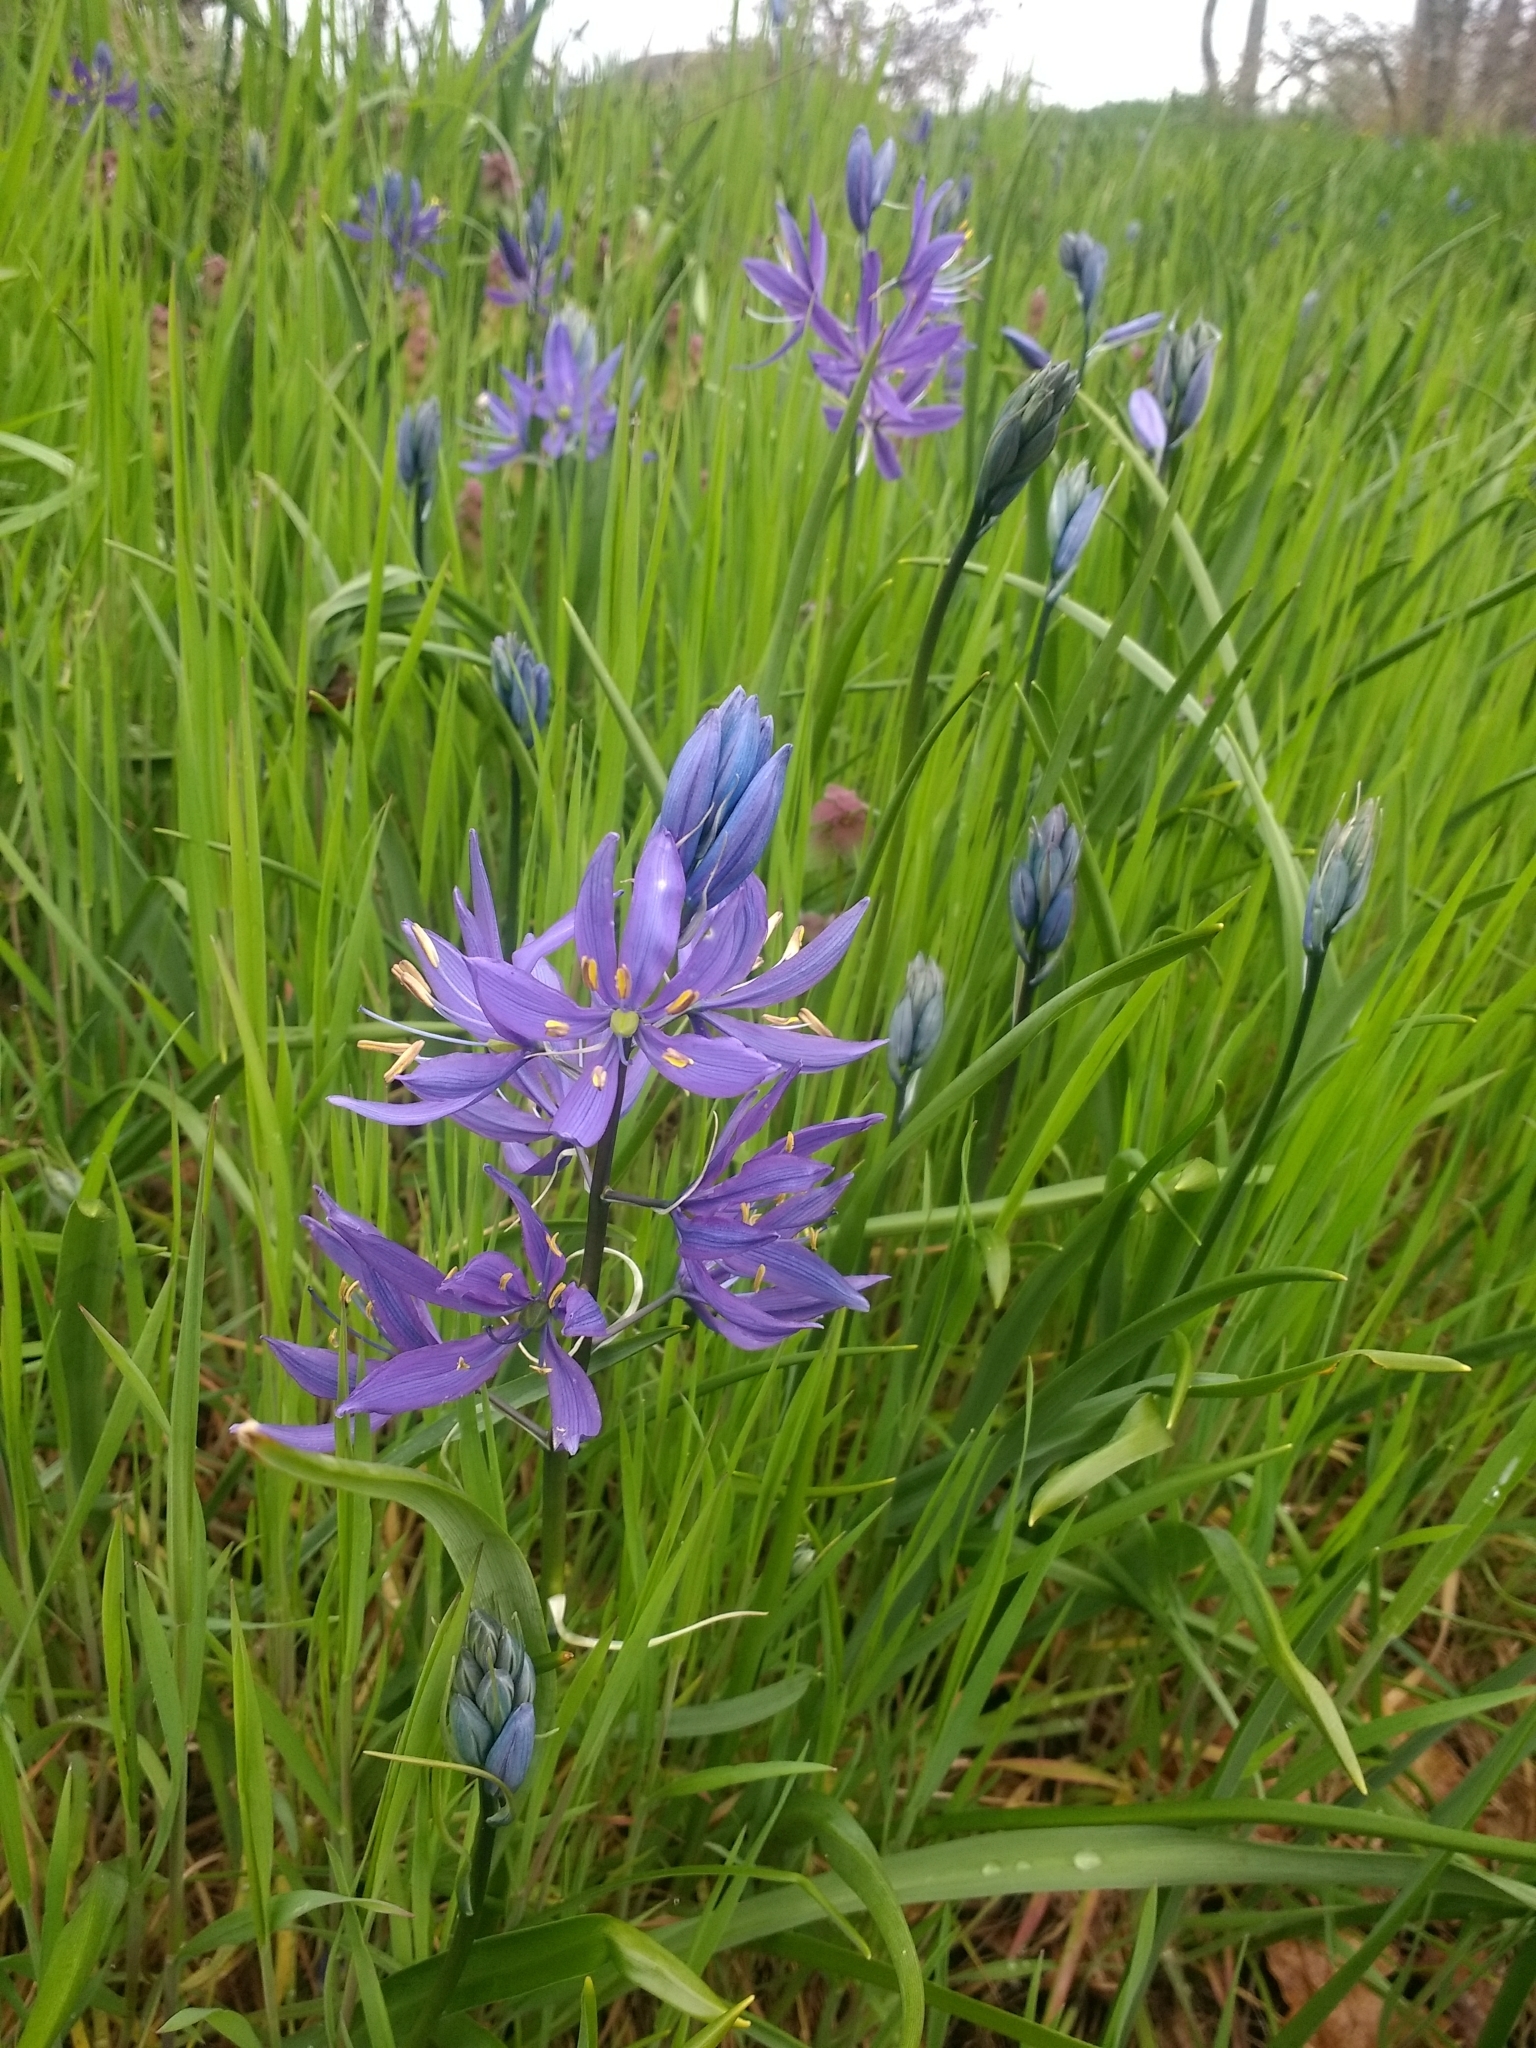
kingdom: Plantae
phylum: Tracheophyta
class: Liliopsida
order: Asparagales
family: Asparagaceae
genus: Camassia
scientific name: Camassia leichtlinii
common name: Leichtlin's camas
